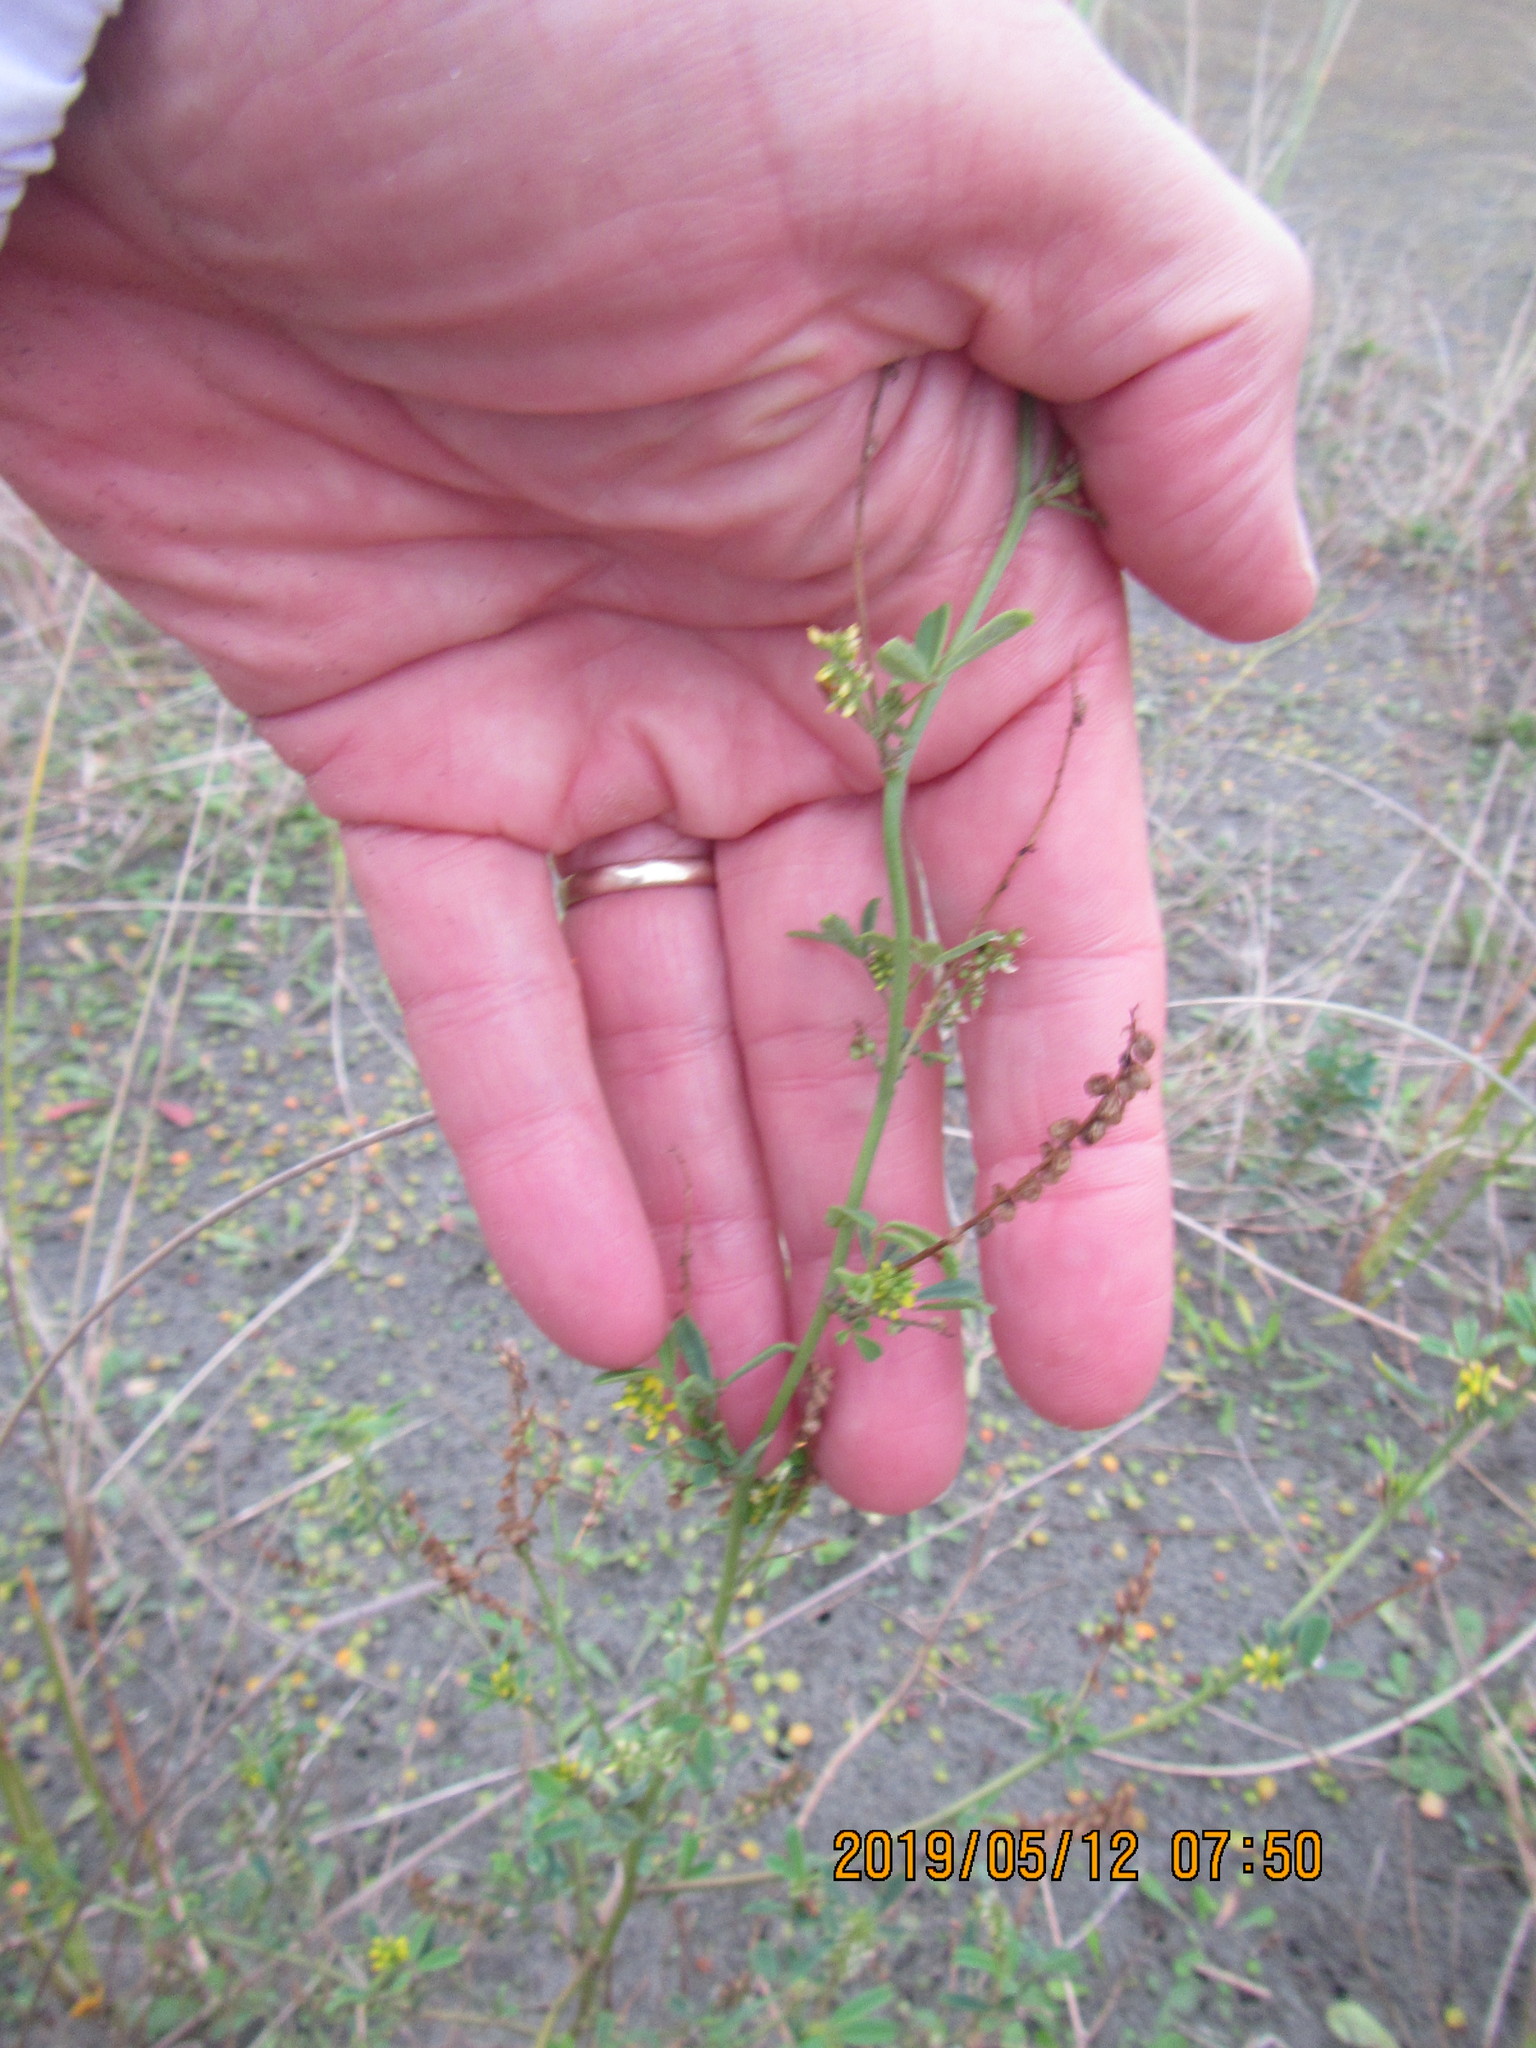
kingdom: Plantae
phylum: Tracheophyta
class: Magnoliopsida
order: Fabales
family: Fabaceae
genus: Melilotus
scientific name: Melilotus indicus
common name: Small melilot
